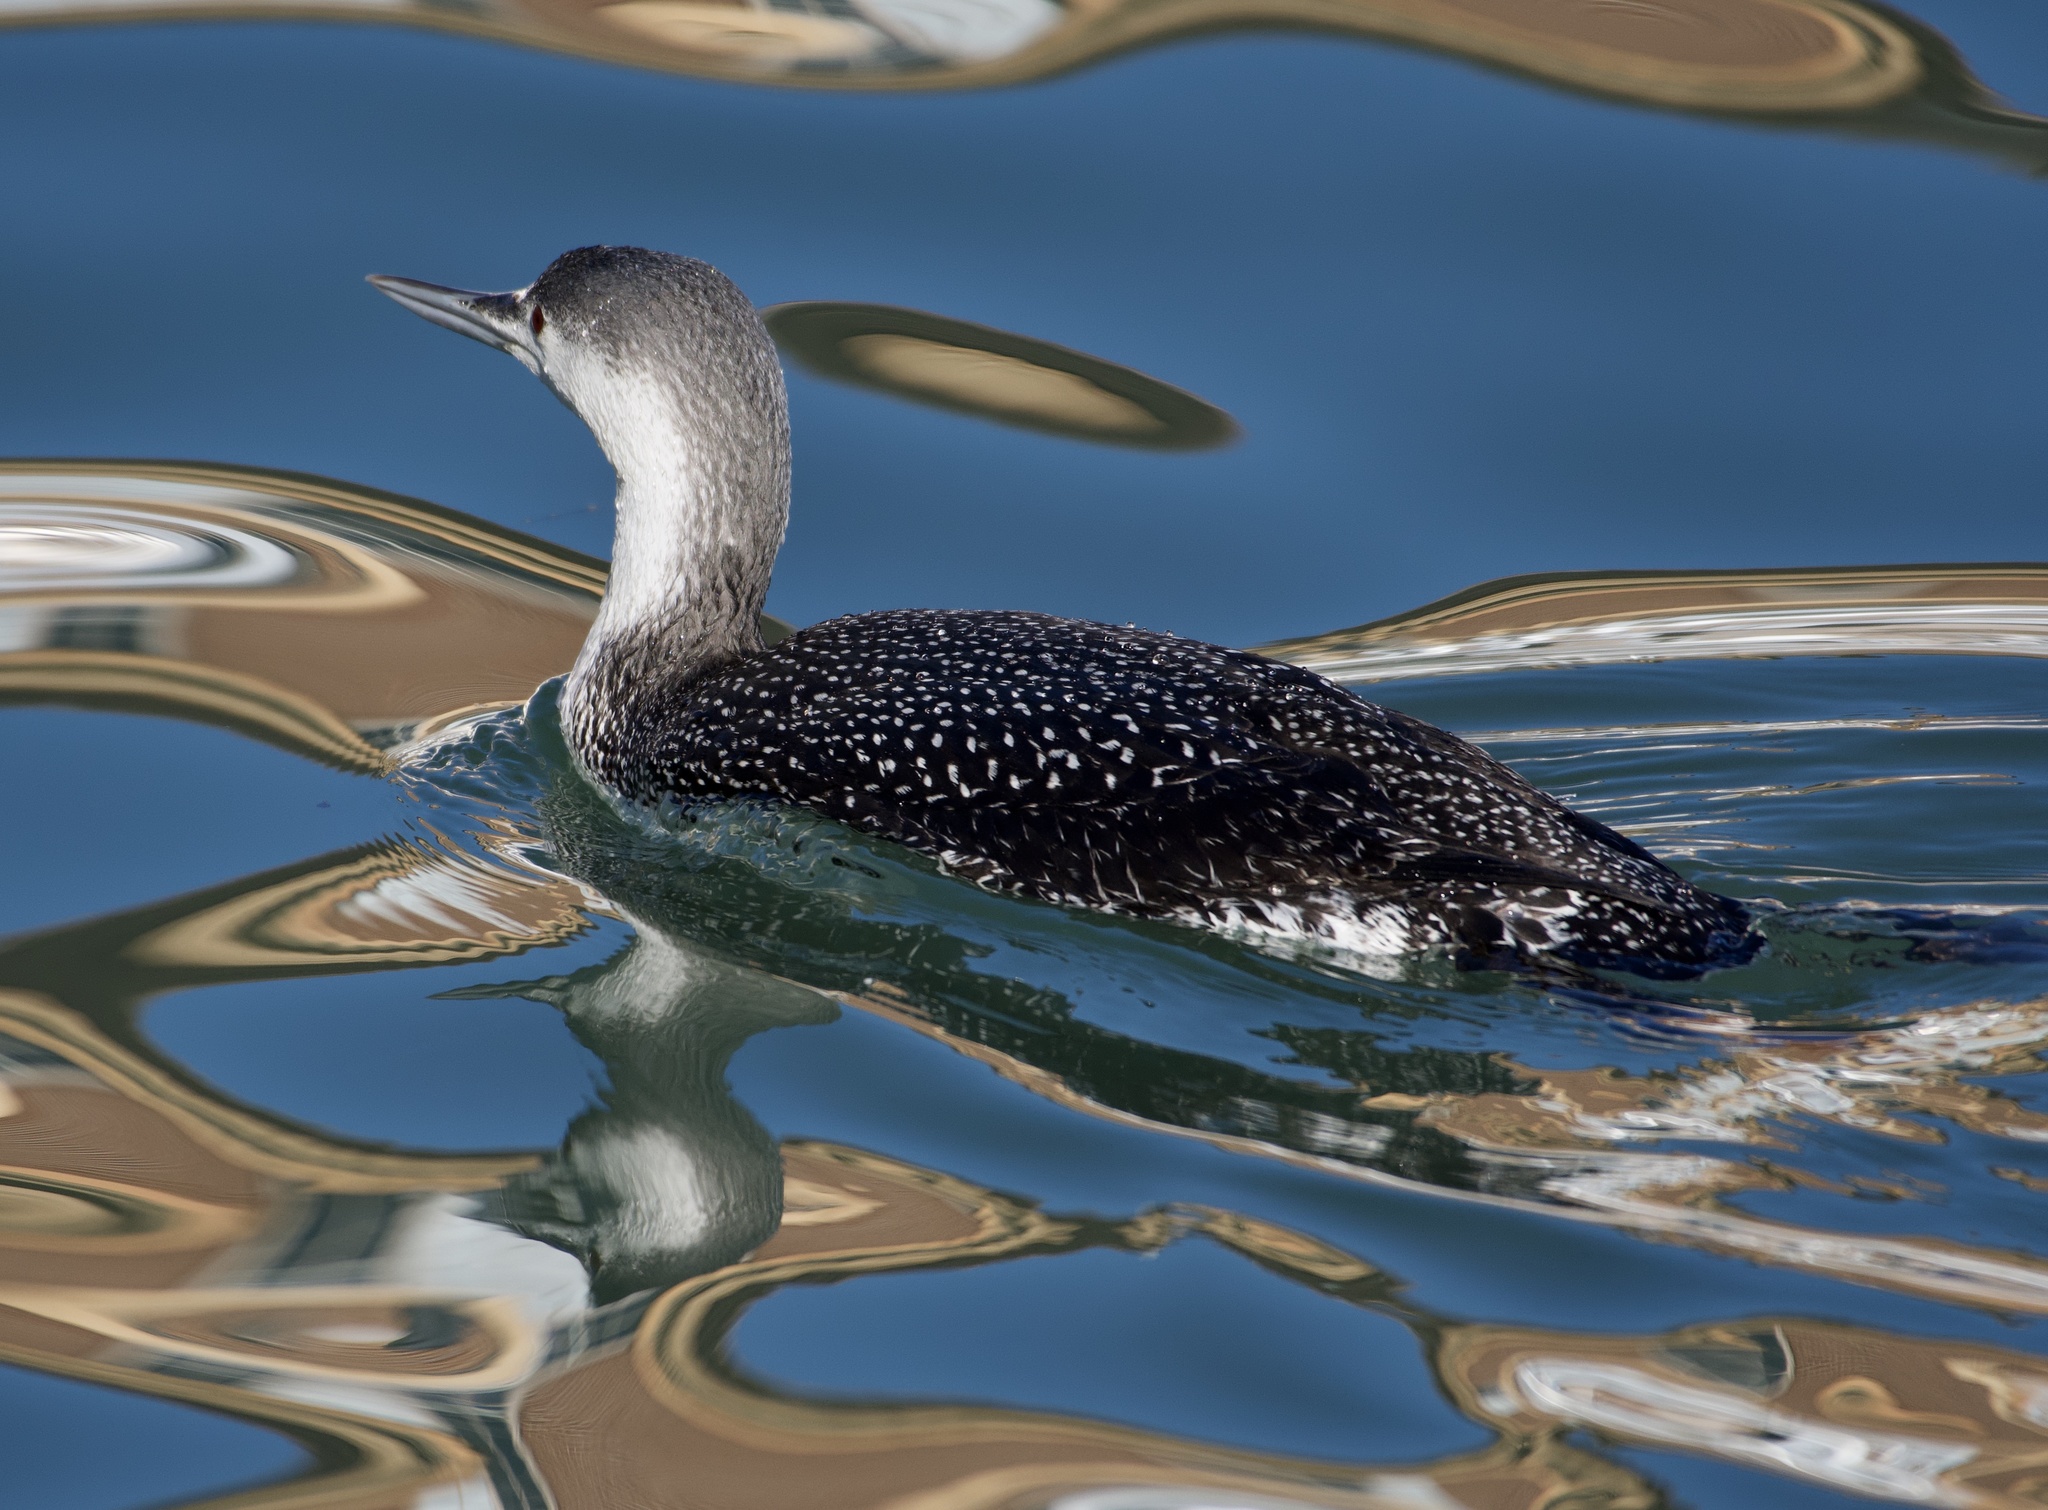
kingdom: Animalia
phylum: Chordata
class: Aves
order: Gaviiformes
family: Gaviidae
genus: Gavia
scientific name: Gavia stellata
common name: Red-throated loon
